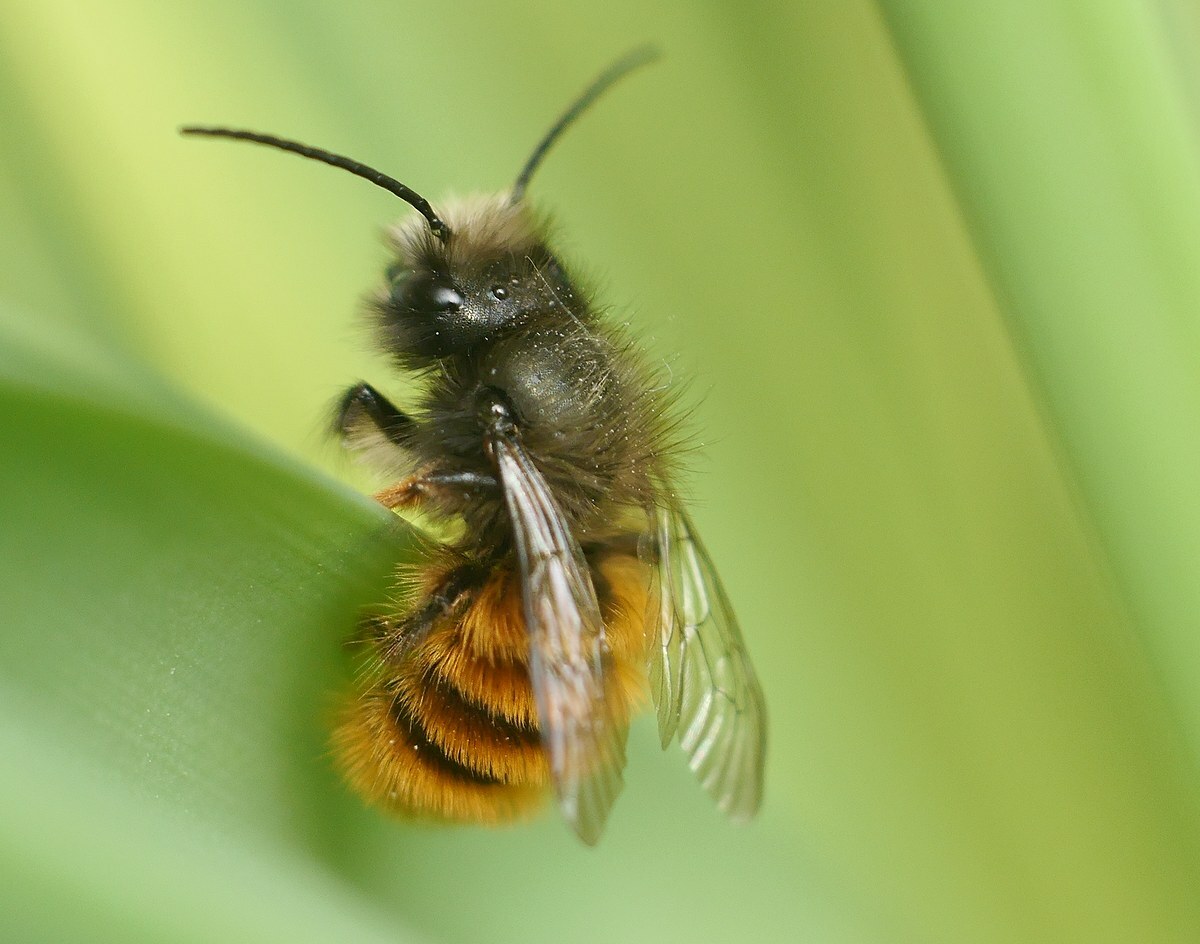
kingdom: Animalia
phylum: Arthropoda
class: Insecta
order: Hymenoptera
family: Megachilidae
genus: Osmia
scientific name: Osmia cornuta
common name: Mason bee
